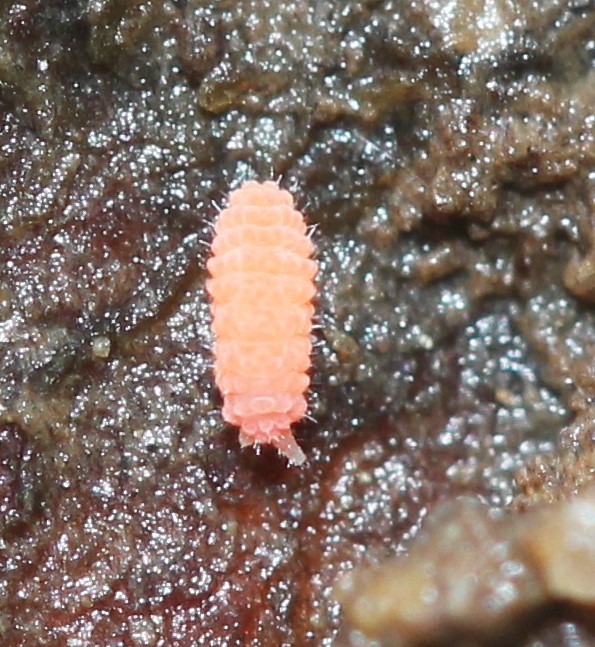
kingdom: Animalia
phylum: Arthropoda
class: Collembola
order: Poduromorpha
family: Neanuridae
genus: Vitronura
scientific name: Vitronura giselae
